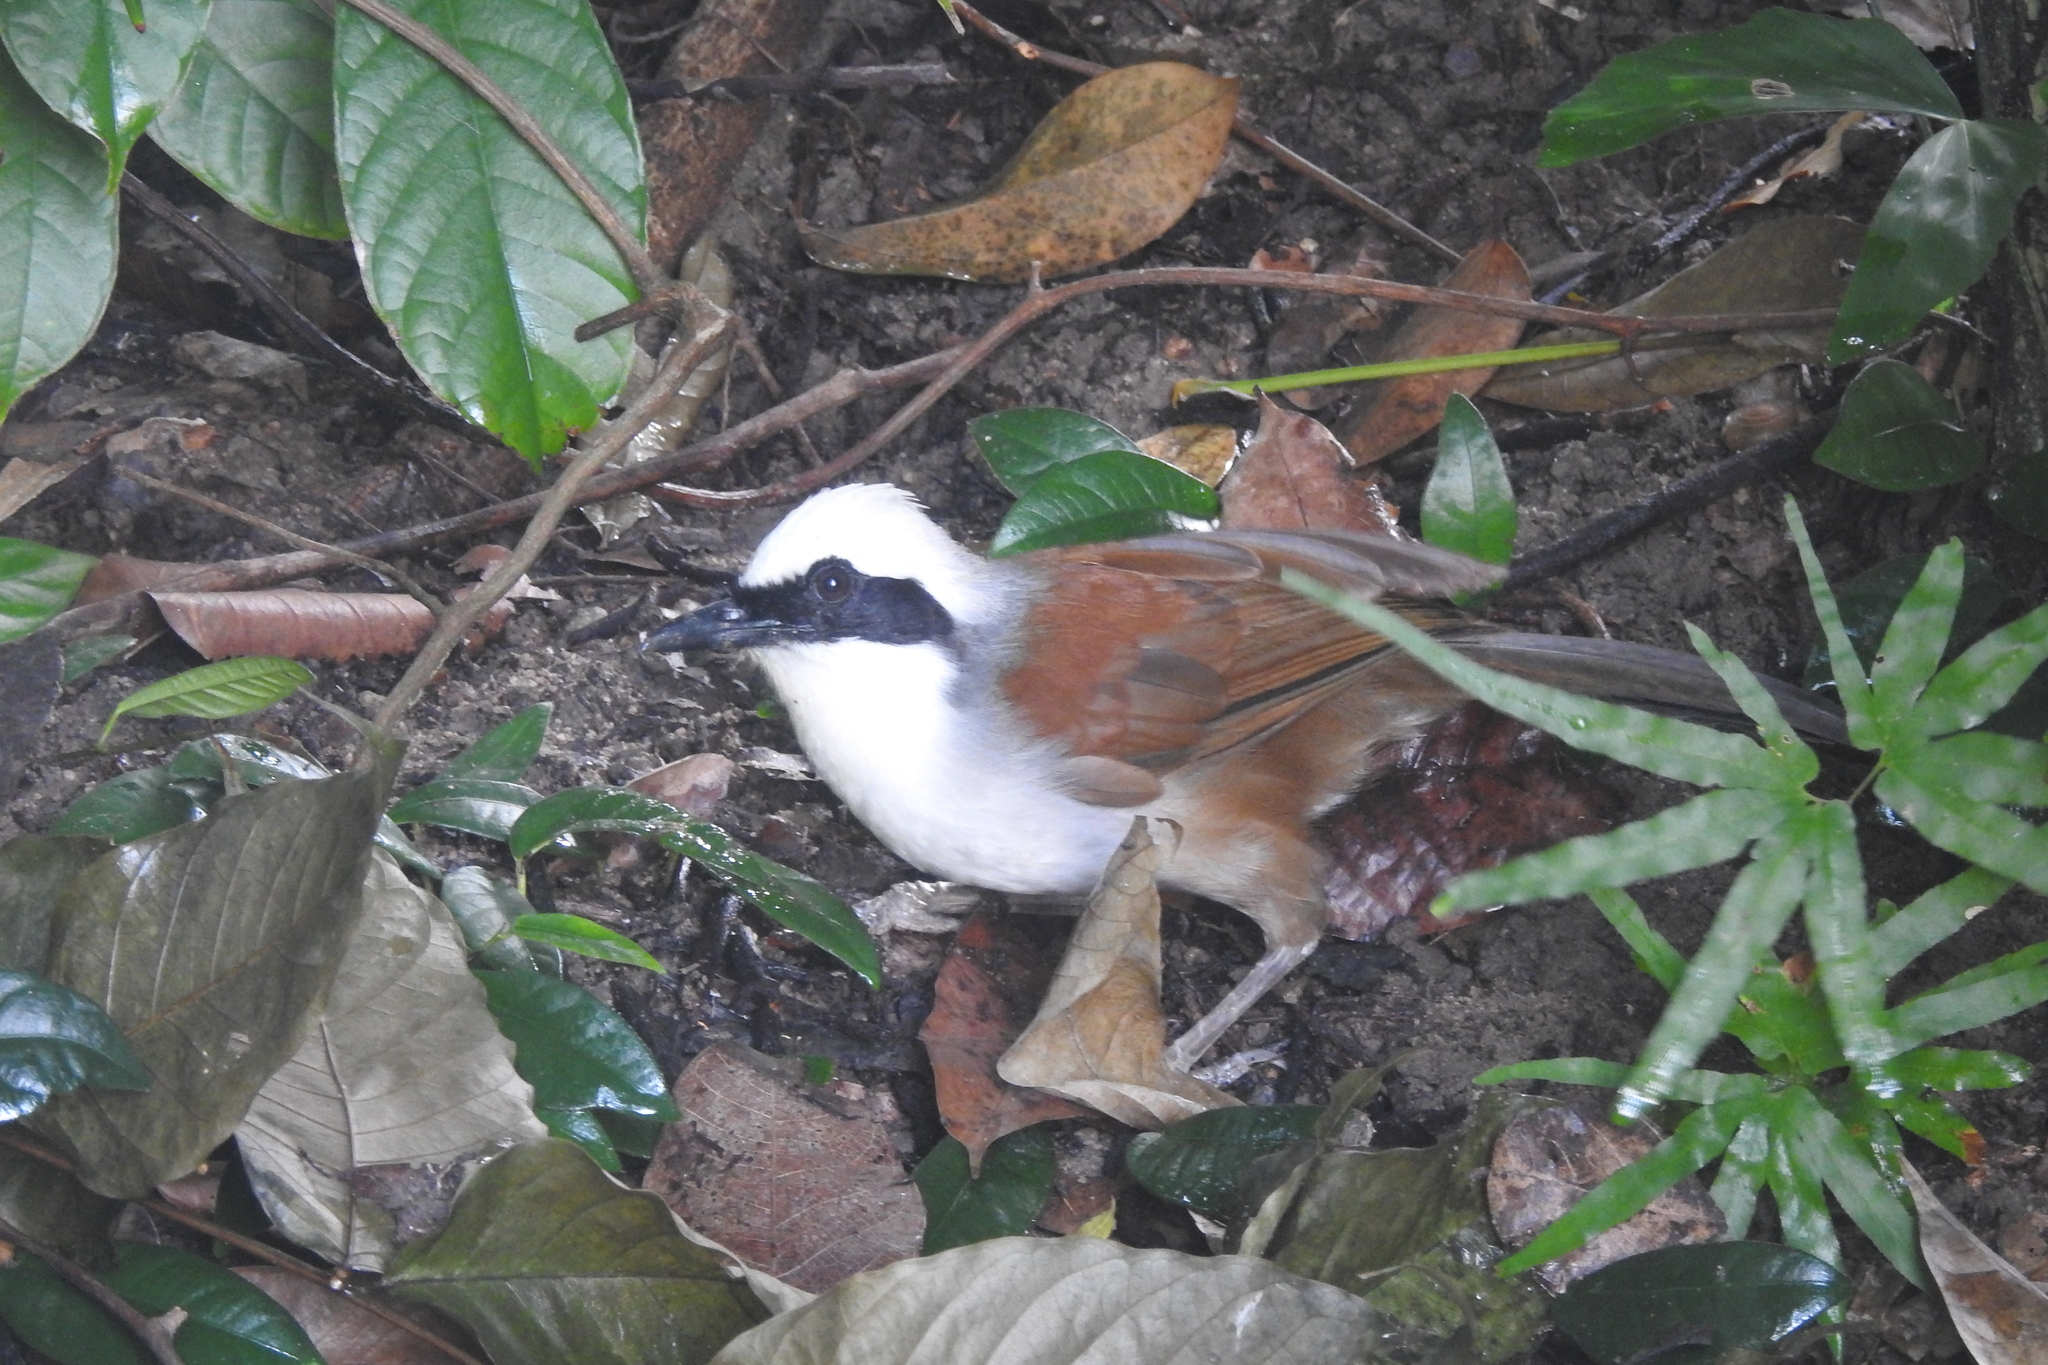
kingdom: Animalia
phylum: Chordata
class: Aves
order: Passeriformes
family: Leiothrichidae
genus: Garrulax
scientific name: Garrulax leucolophus
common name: White-crested laughingthrush
